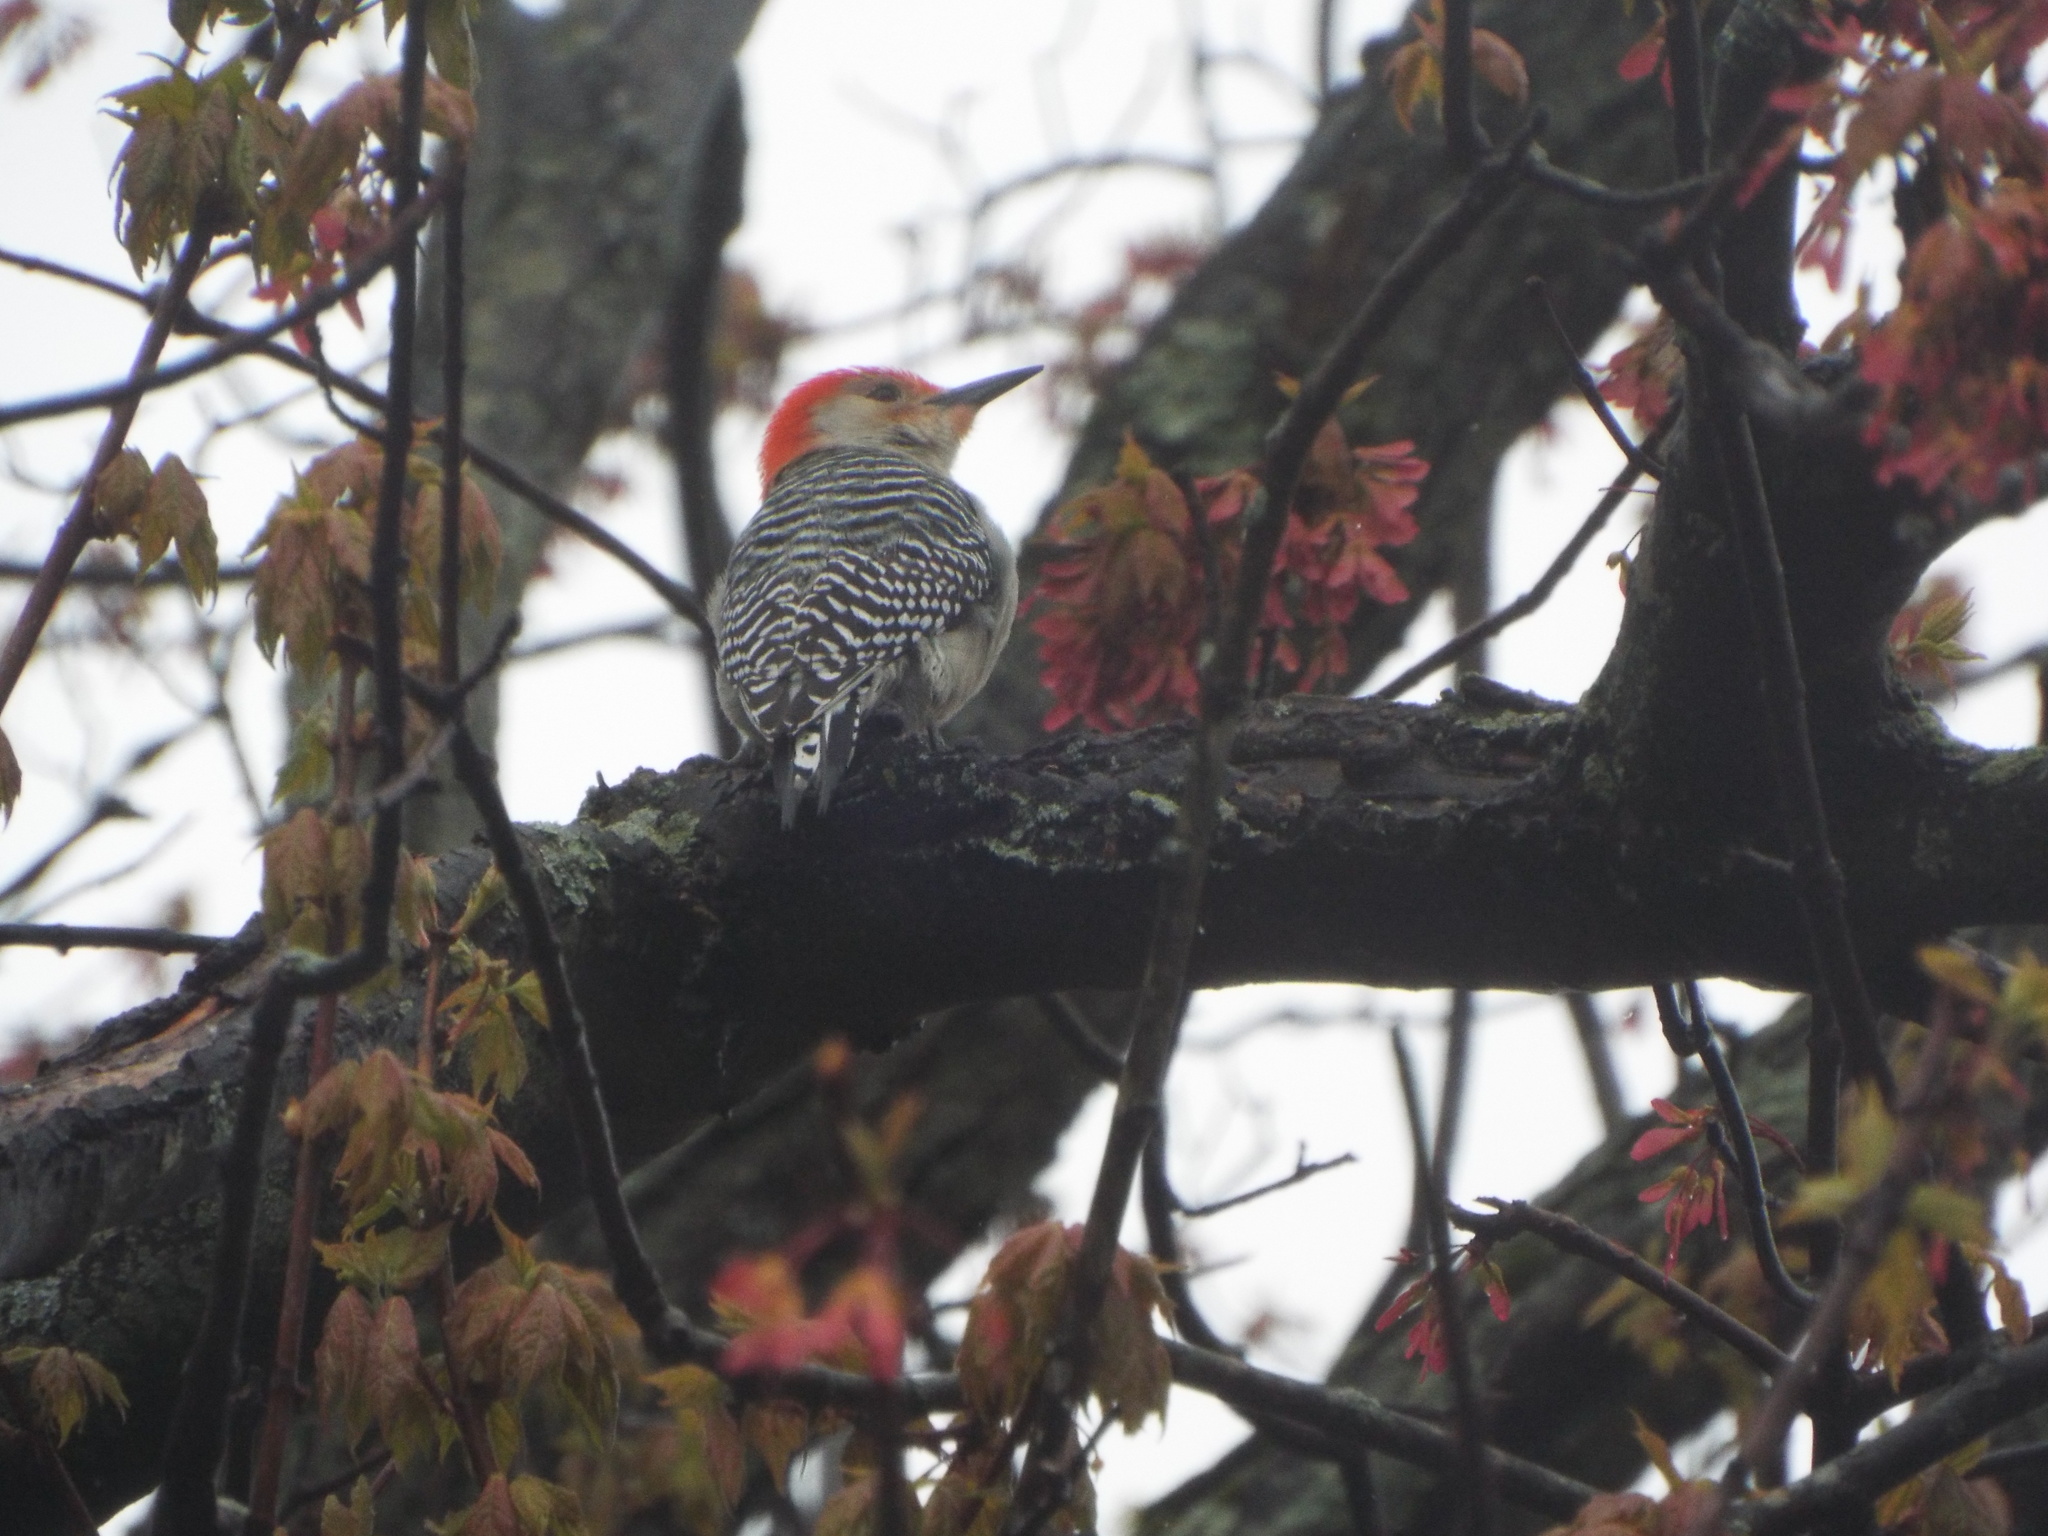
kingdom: Animalia
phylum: Chordata
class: Aves
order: Piciformes
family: Picidae
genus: Melanerpes
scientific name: Melanerpes carolinus
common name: Red-bellied woodpecker
